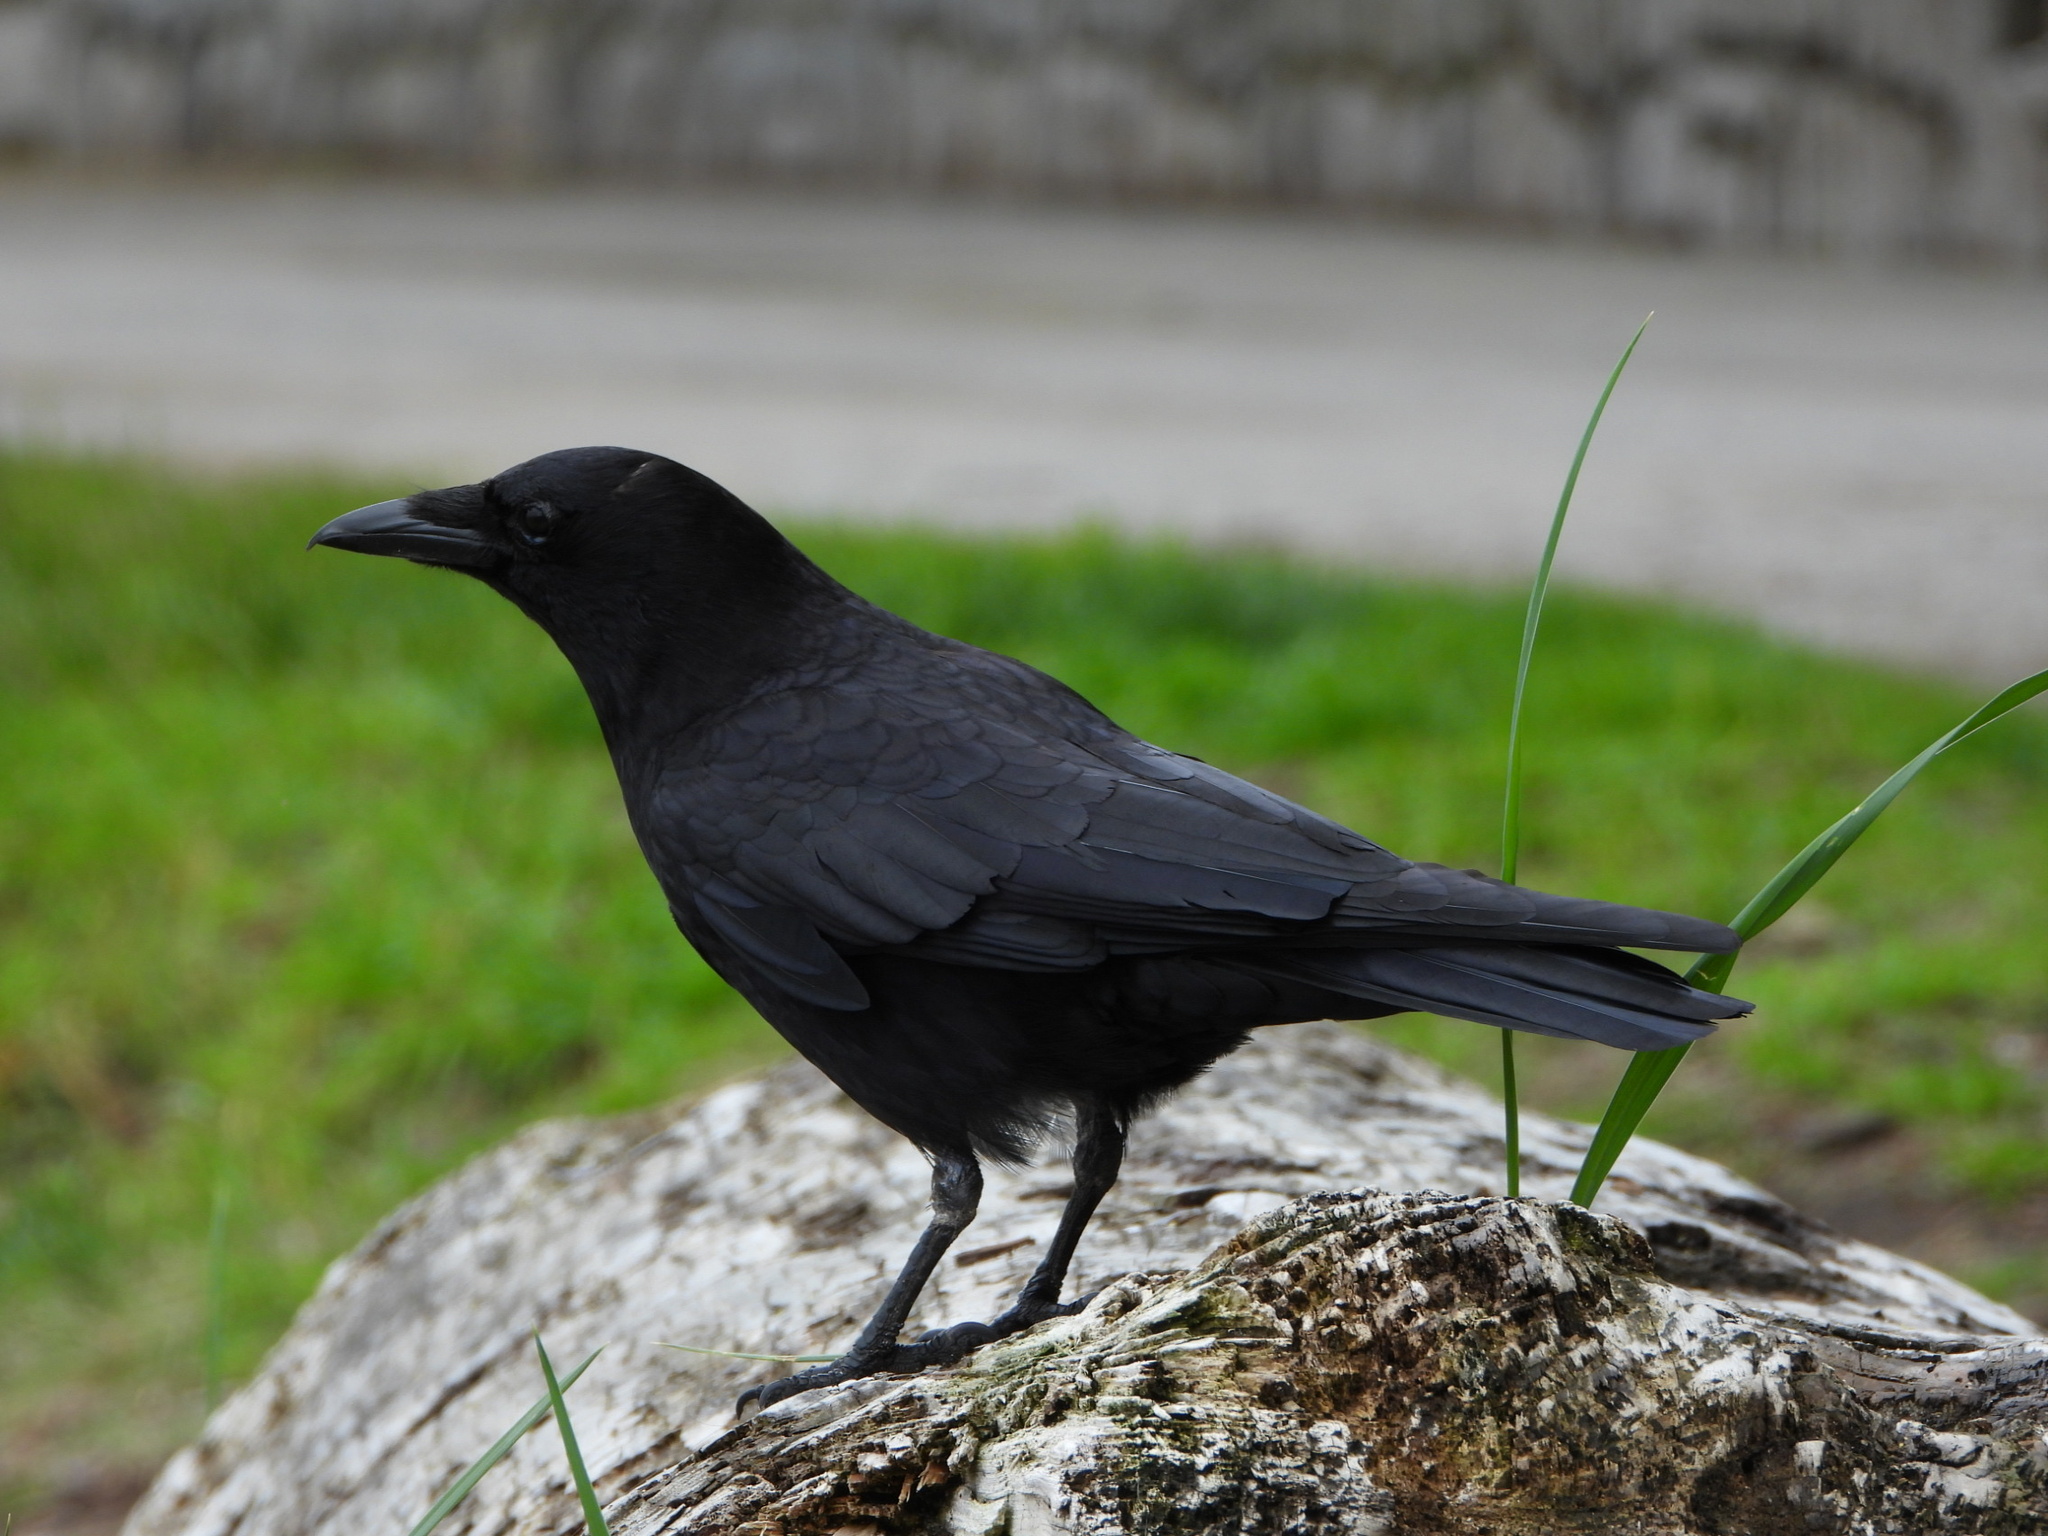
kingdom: Animalia
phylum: Chordata
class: Aves
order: Passeriformes
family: Corvidae
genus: Corvus
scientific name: Corvus brachyrhynchos
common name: American crow
